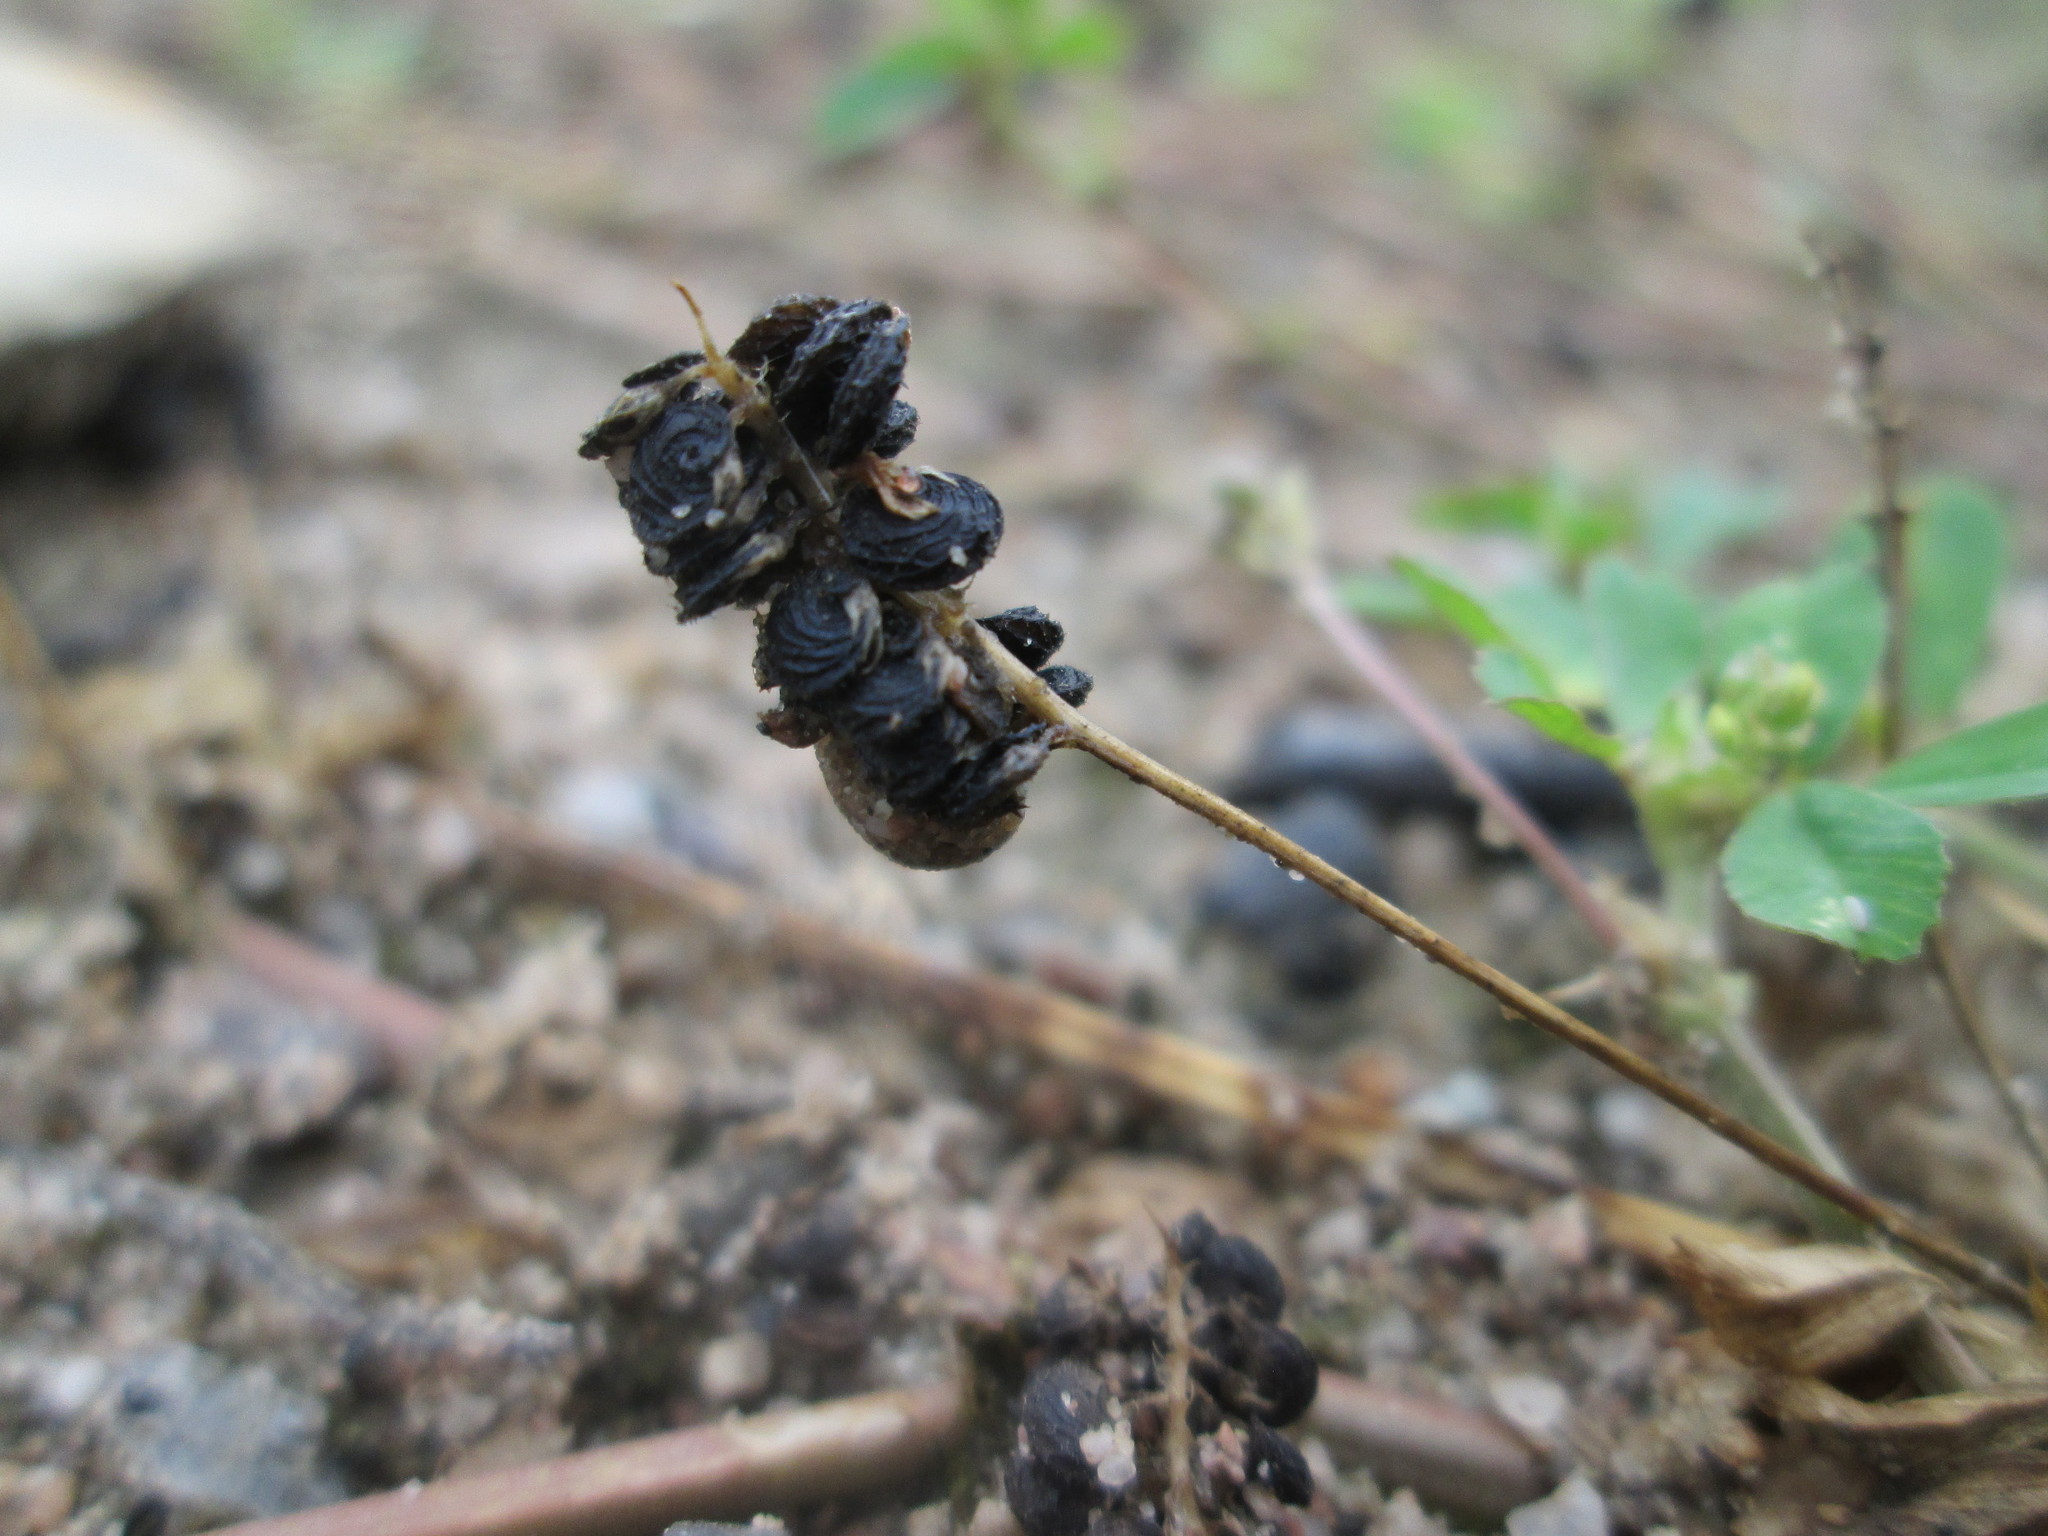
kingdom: Plantae
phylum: Tracheophyta
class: Magnoliopsida
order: Fabales
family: Fabaceae
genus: Medicago
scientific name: Medicago lupulina
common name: Black medick
